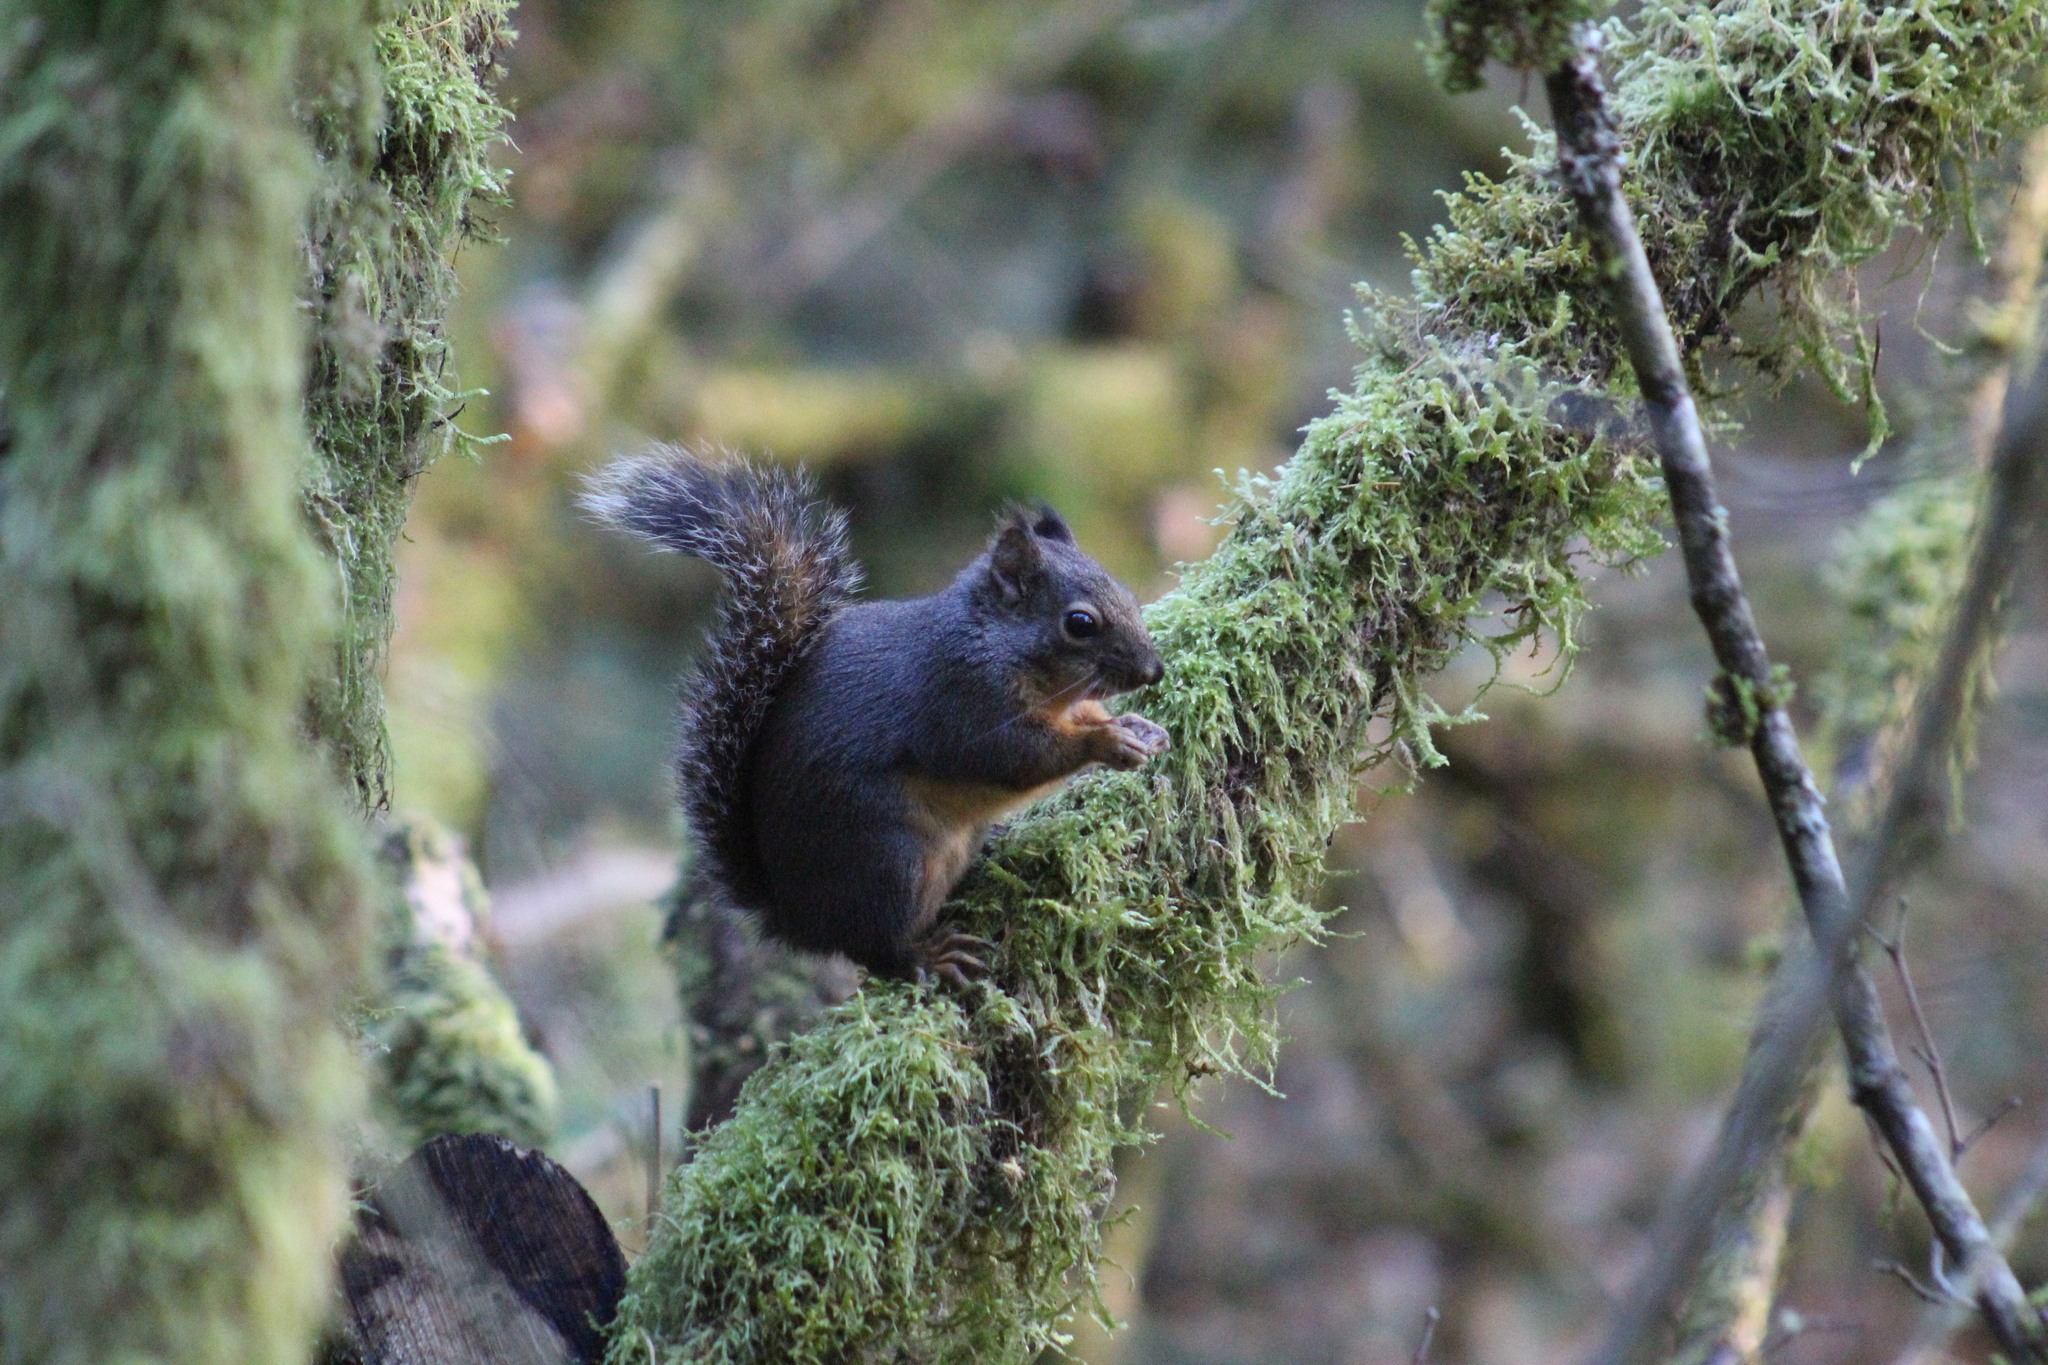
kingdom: Animalia
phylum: Chordata
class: Mammalia
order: Rodentia
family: Sciuridae
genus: Tamiasciurus
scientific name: Tamiasciurus douglasii
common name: Douglas's squirrel
